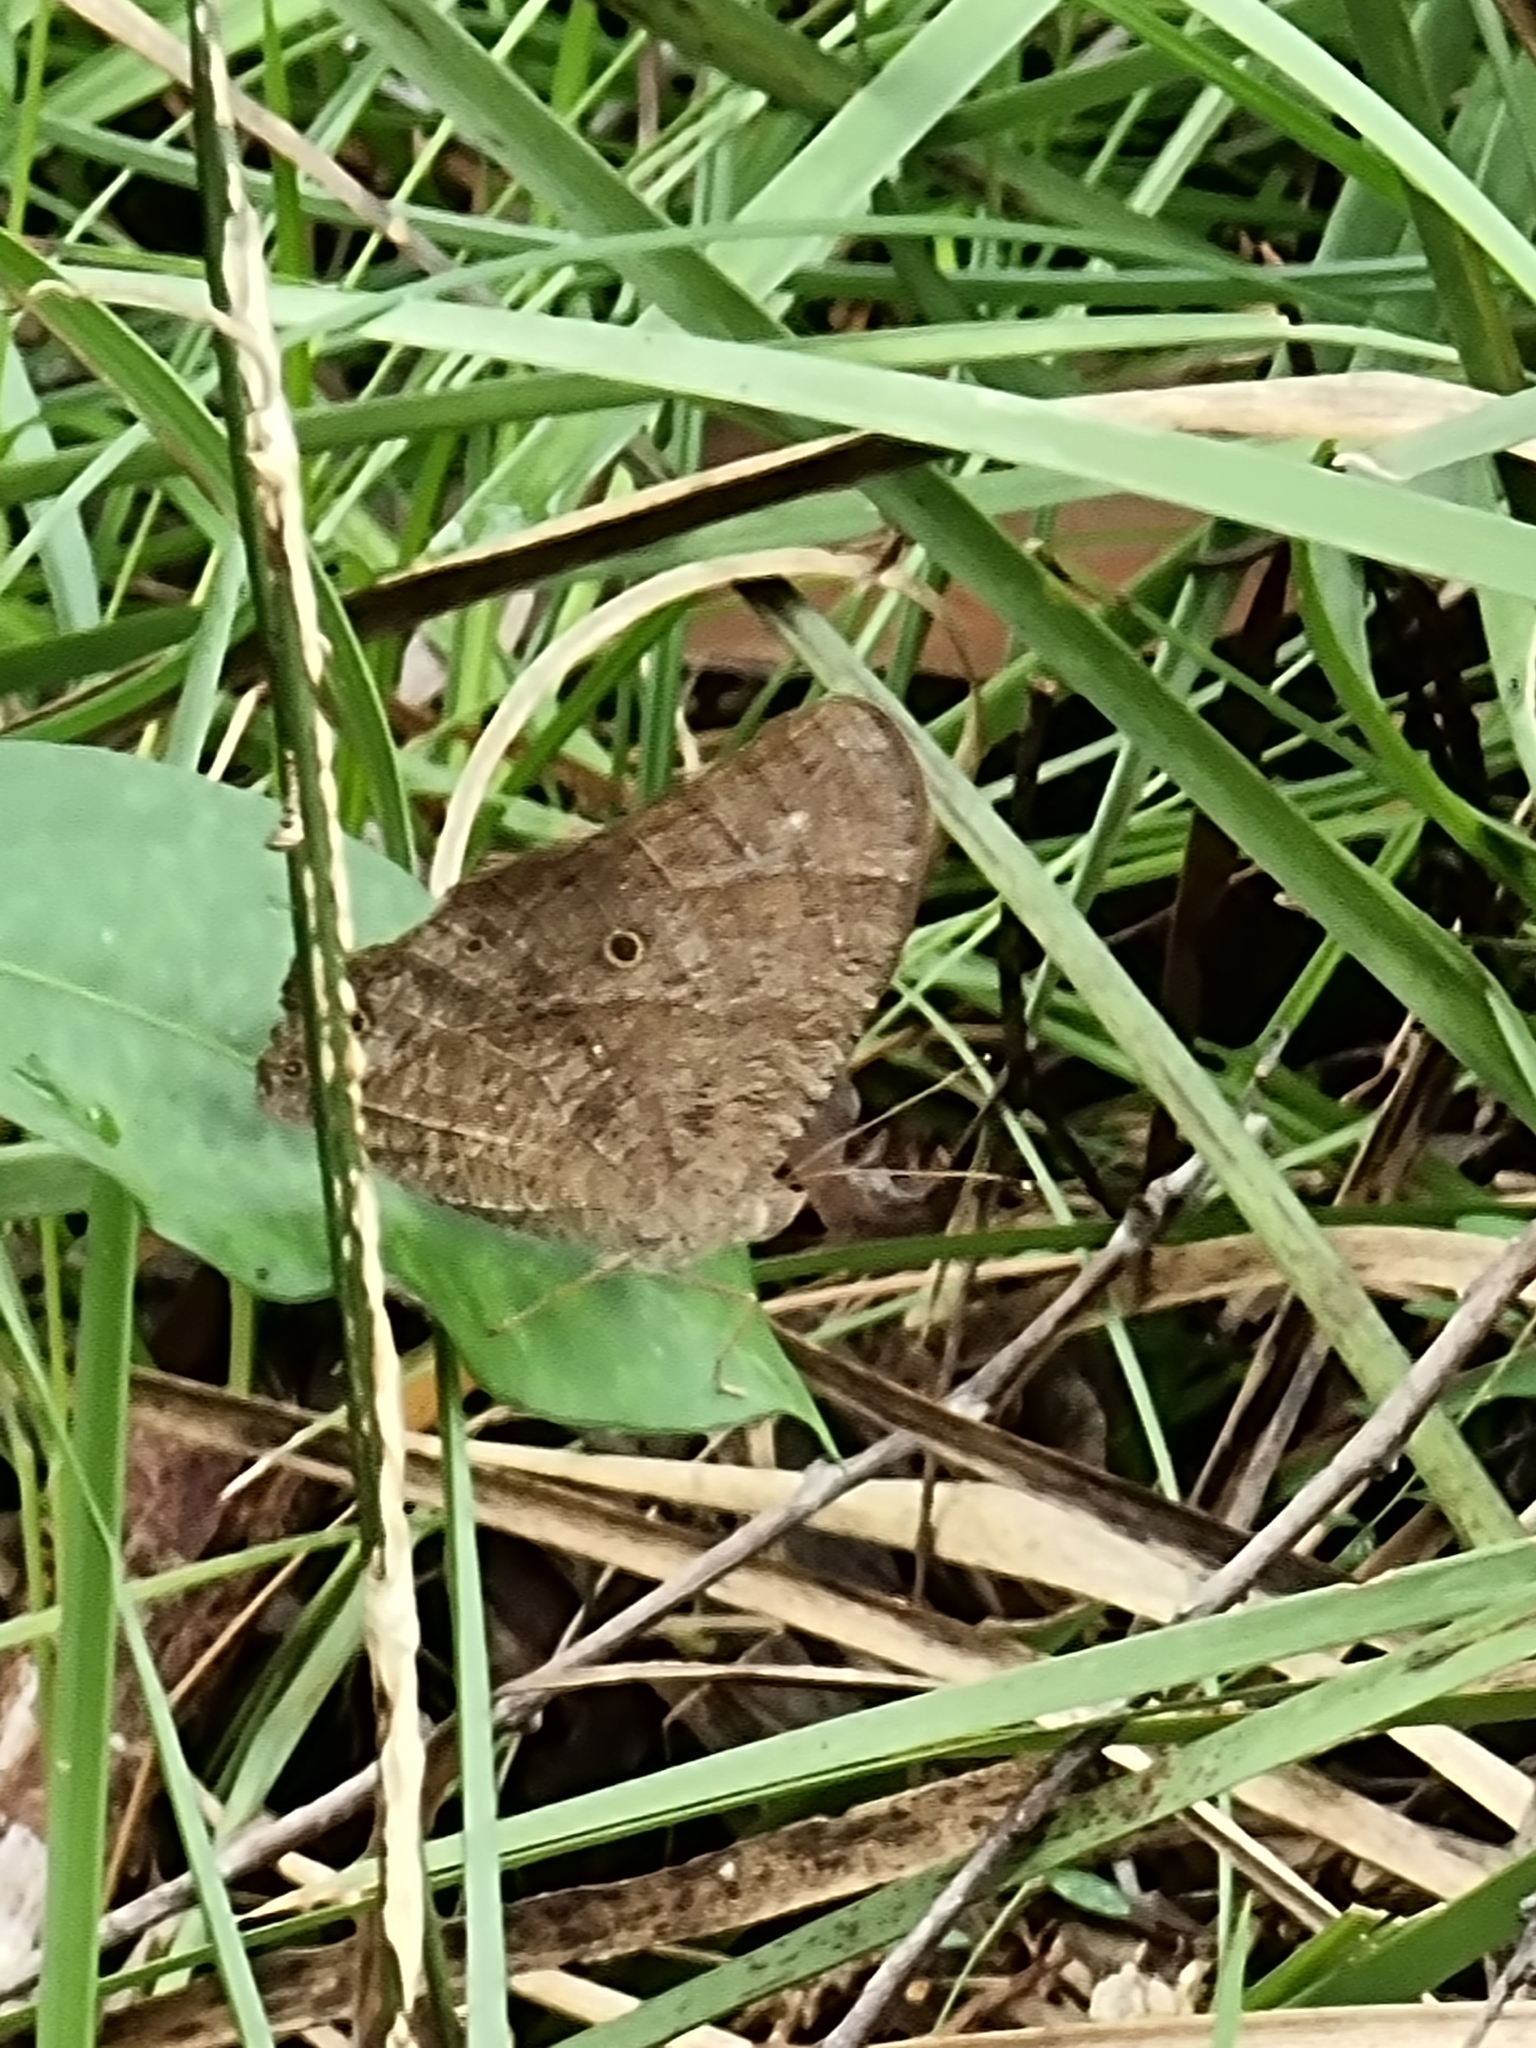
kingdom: Animalia
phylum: Arthropoda
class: Insecta
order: Lepidoptera
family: Nymphalidae
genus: Melanitis
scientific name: Melanitis leda
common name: Twilight brown
